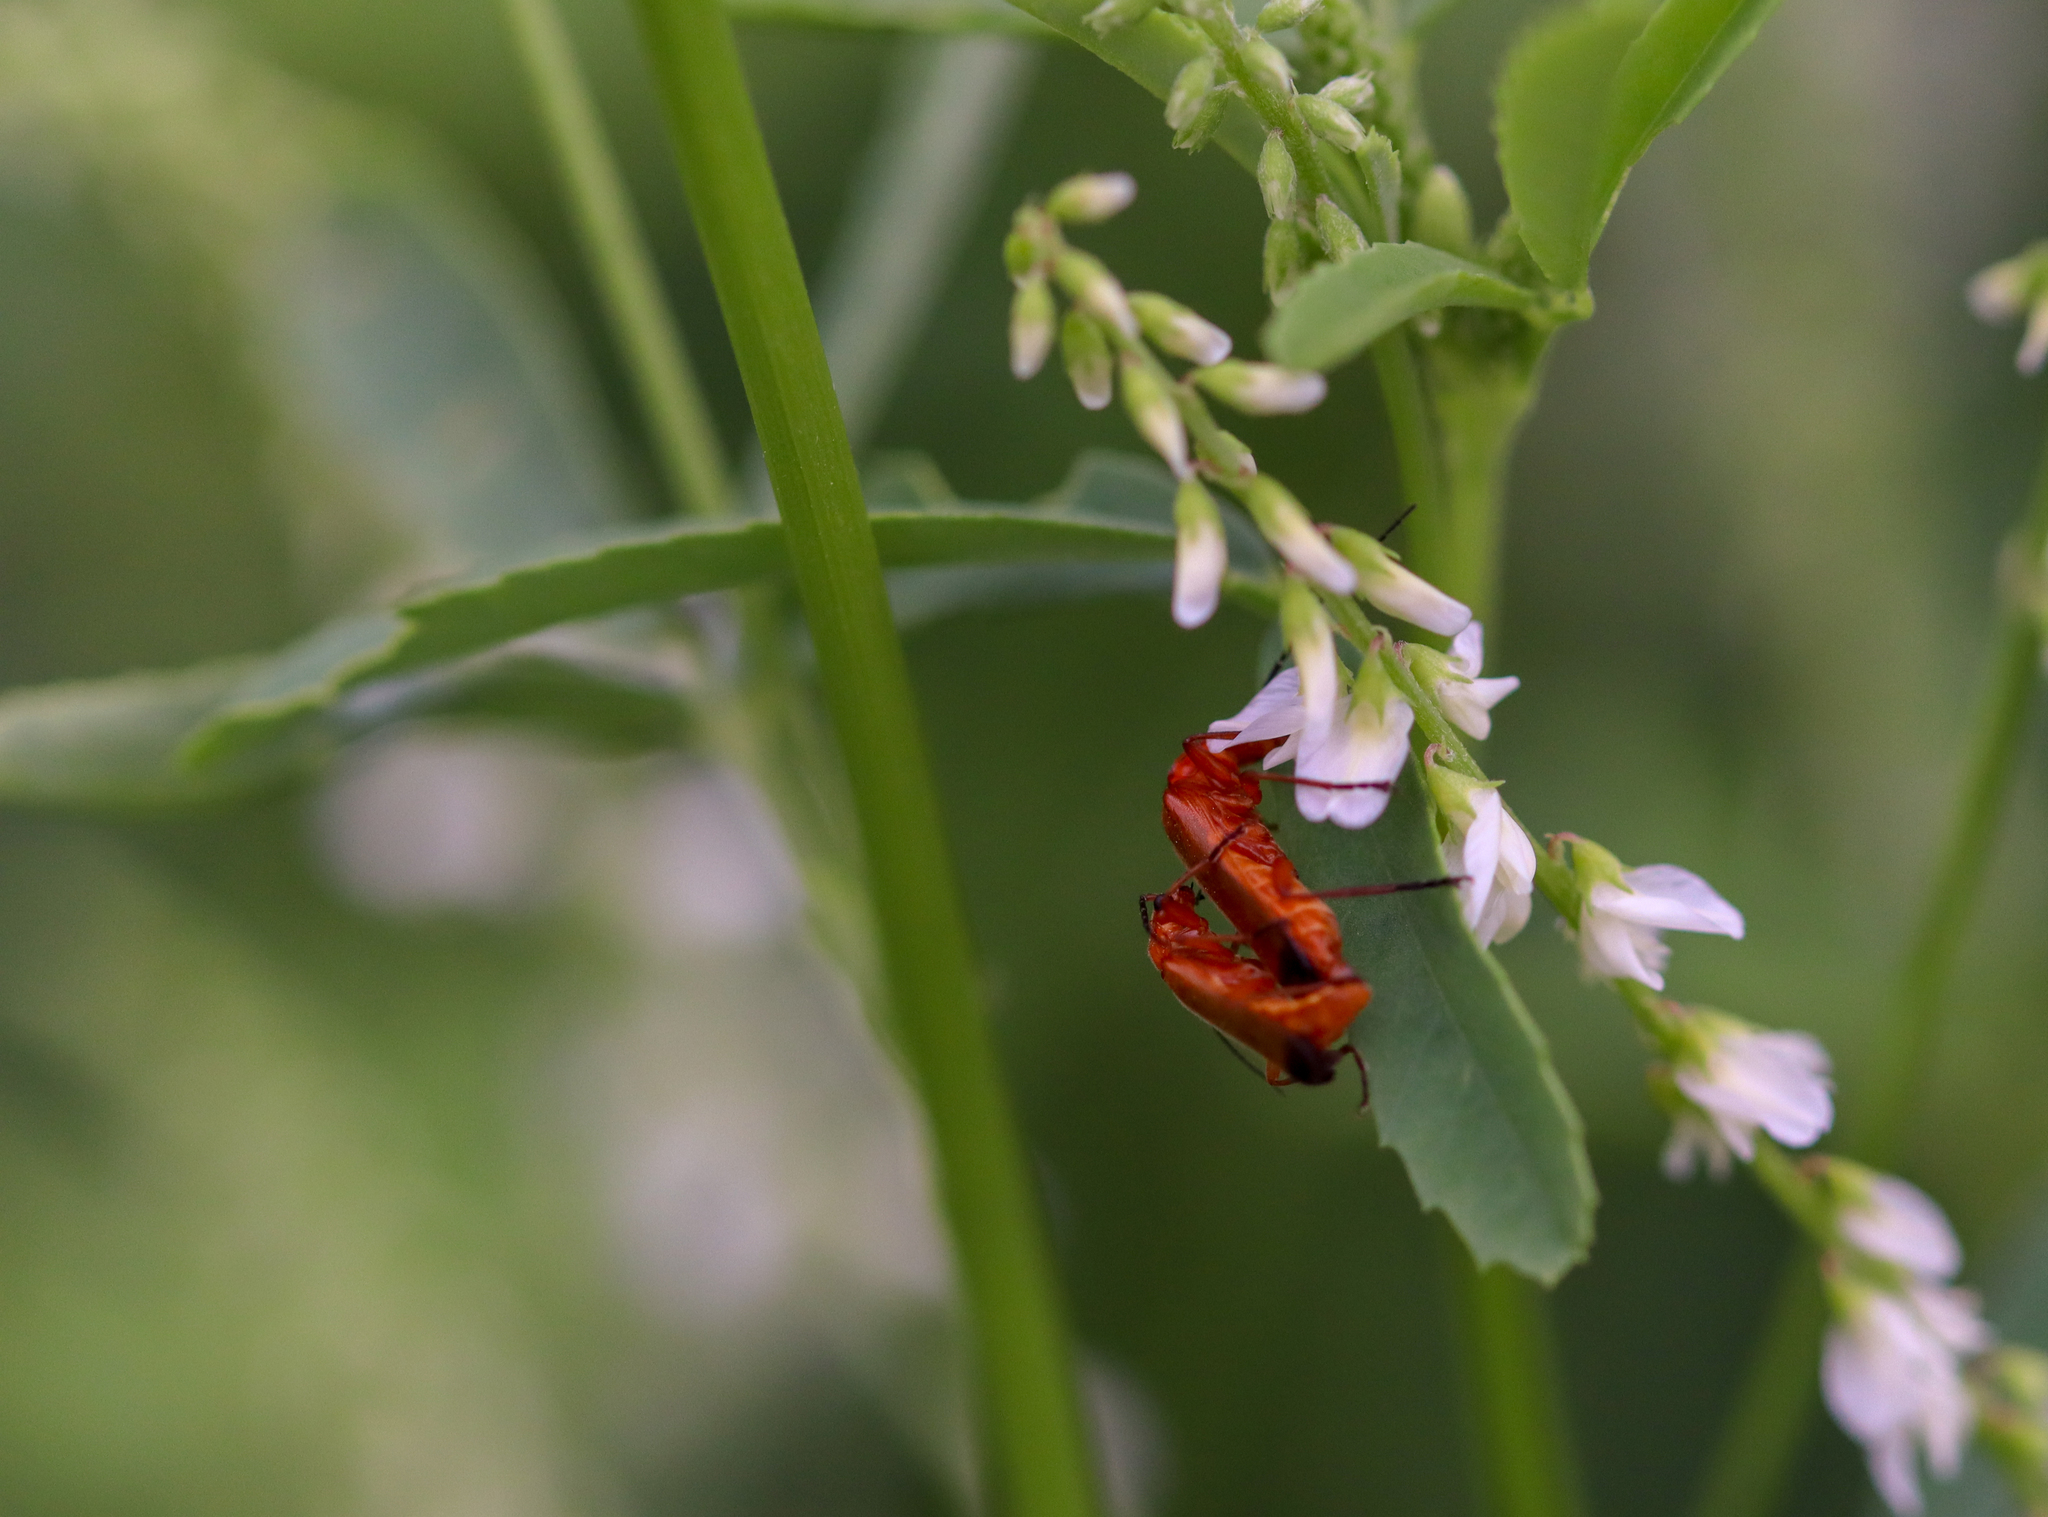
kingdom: Animalia
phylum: Arthropoda
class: Insecta
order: Coleoptera
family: Cantharidae
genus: Rhagonycha
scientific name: Rhagonycha fulva
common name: Common red soldier beetle
